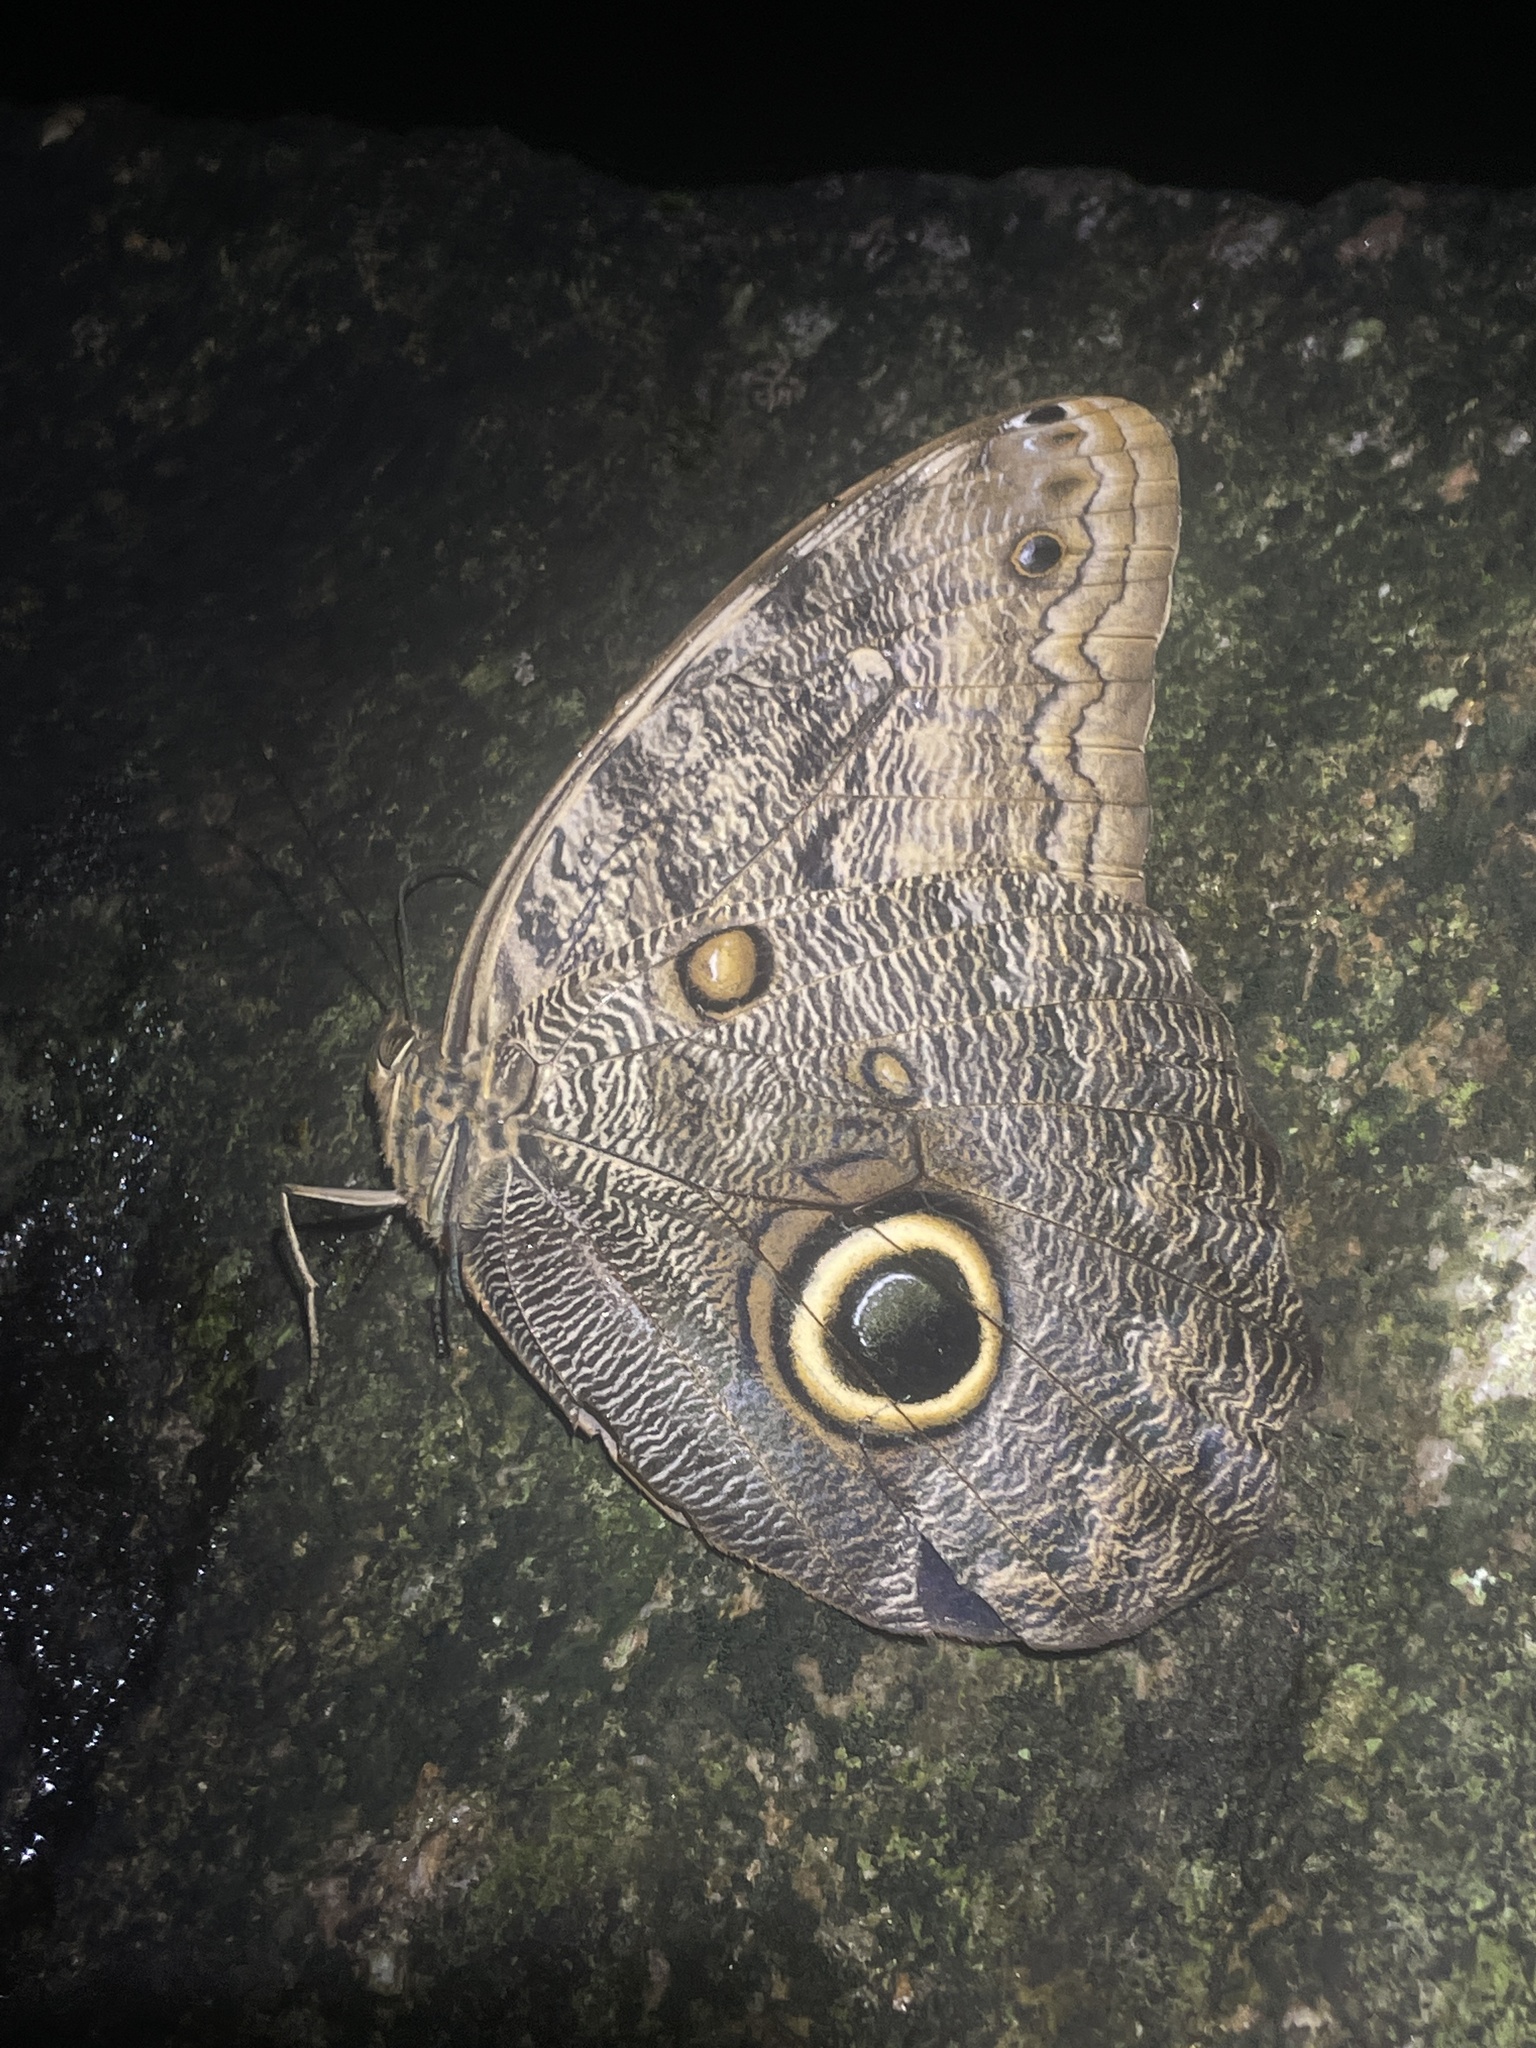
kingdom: Animalia
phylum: Arthropoda
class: Insecta
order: Lepidoptera
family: Nymphalidae
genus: Caligo
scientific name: Caligo brasiliensis
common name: Dark owl-butterfly
